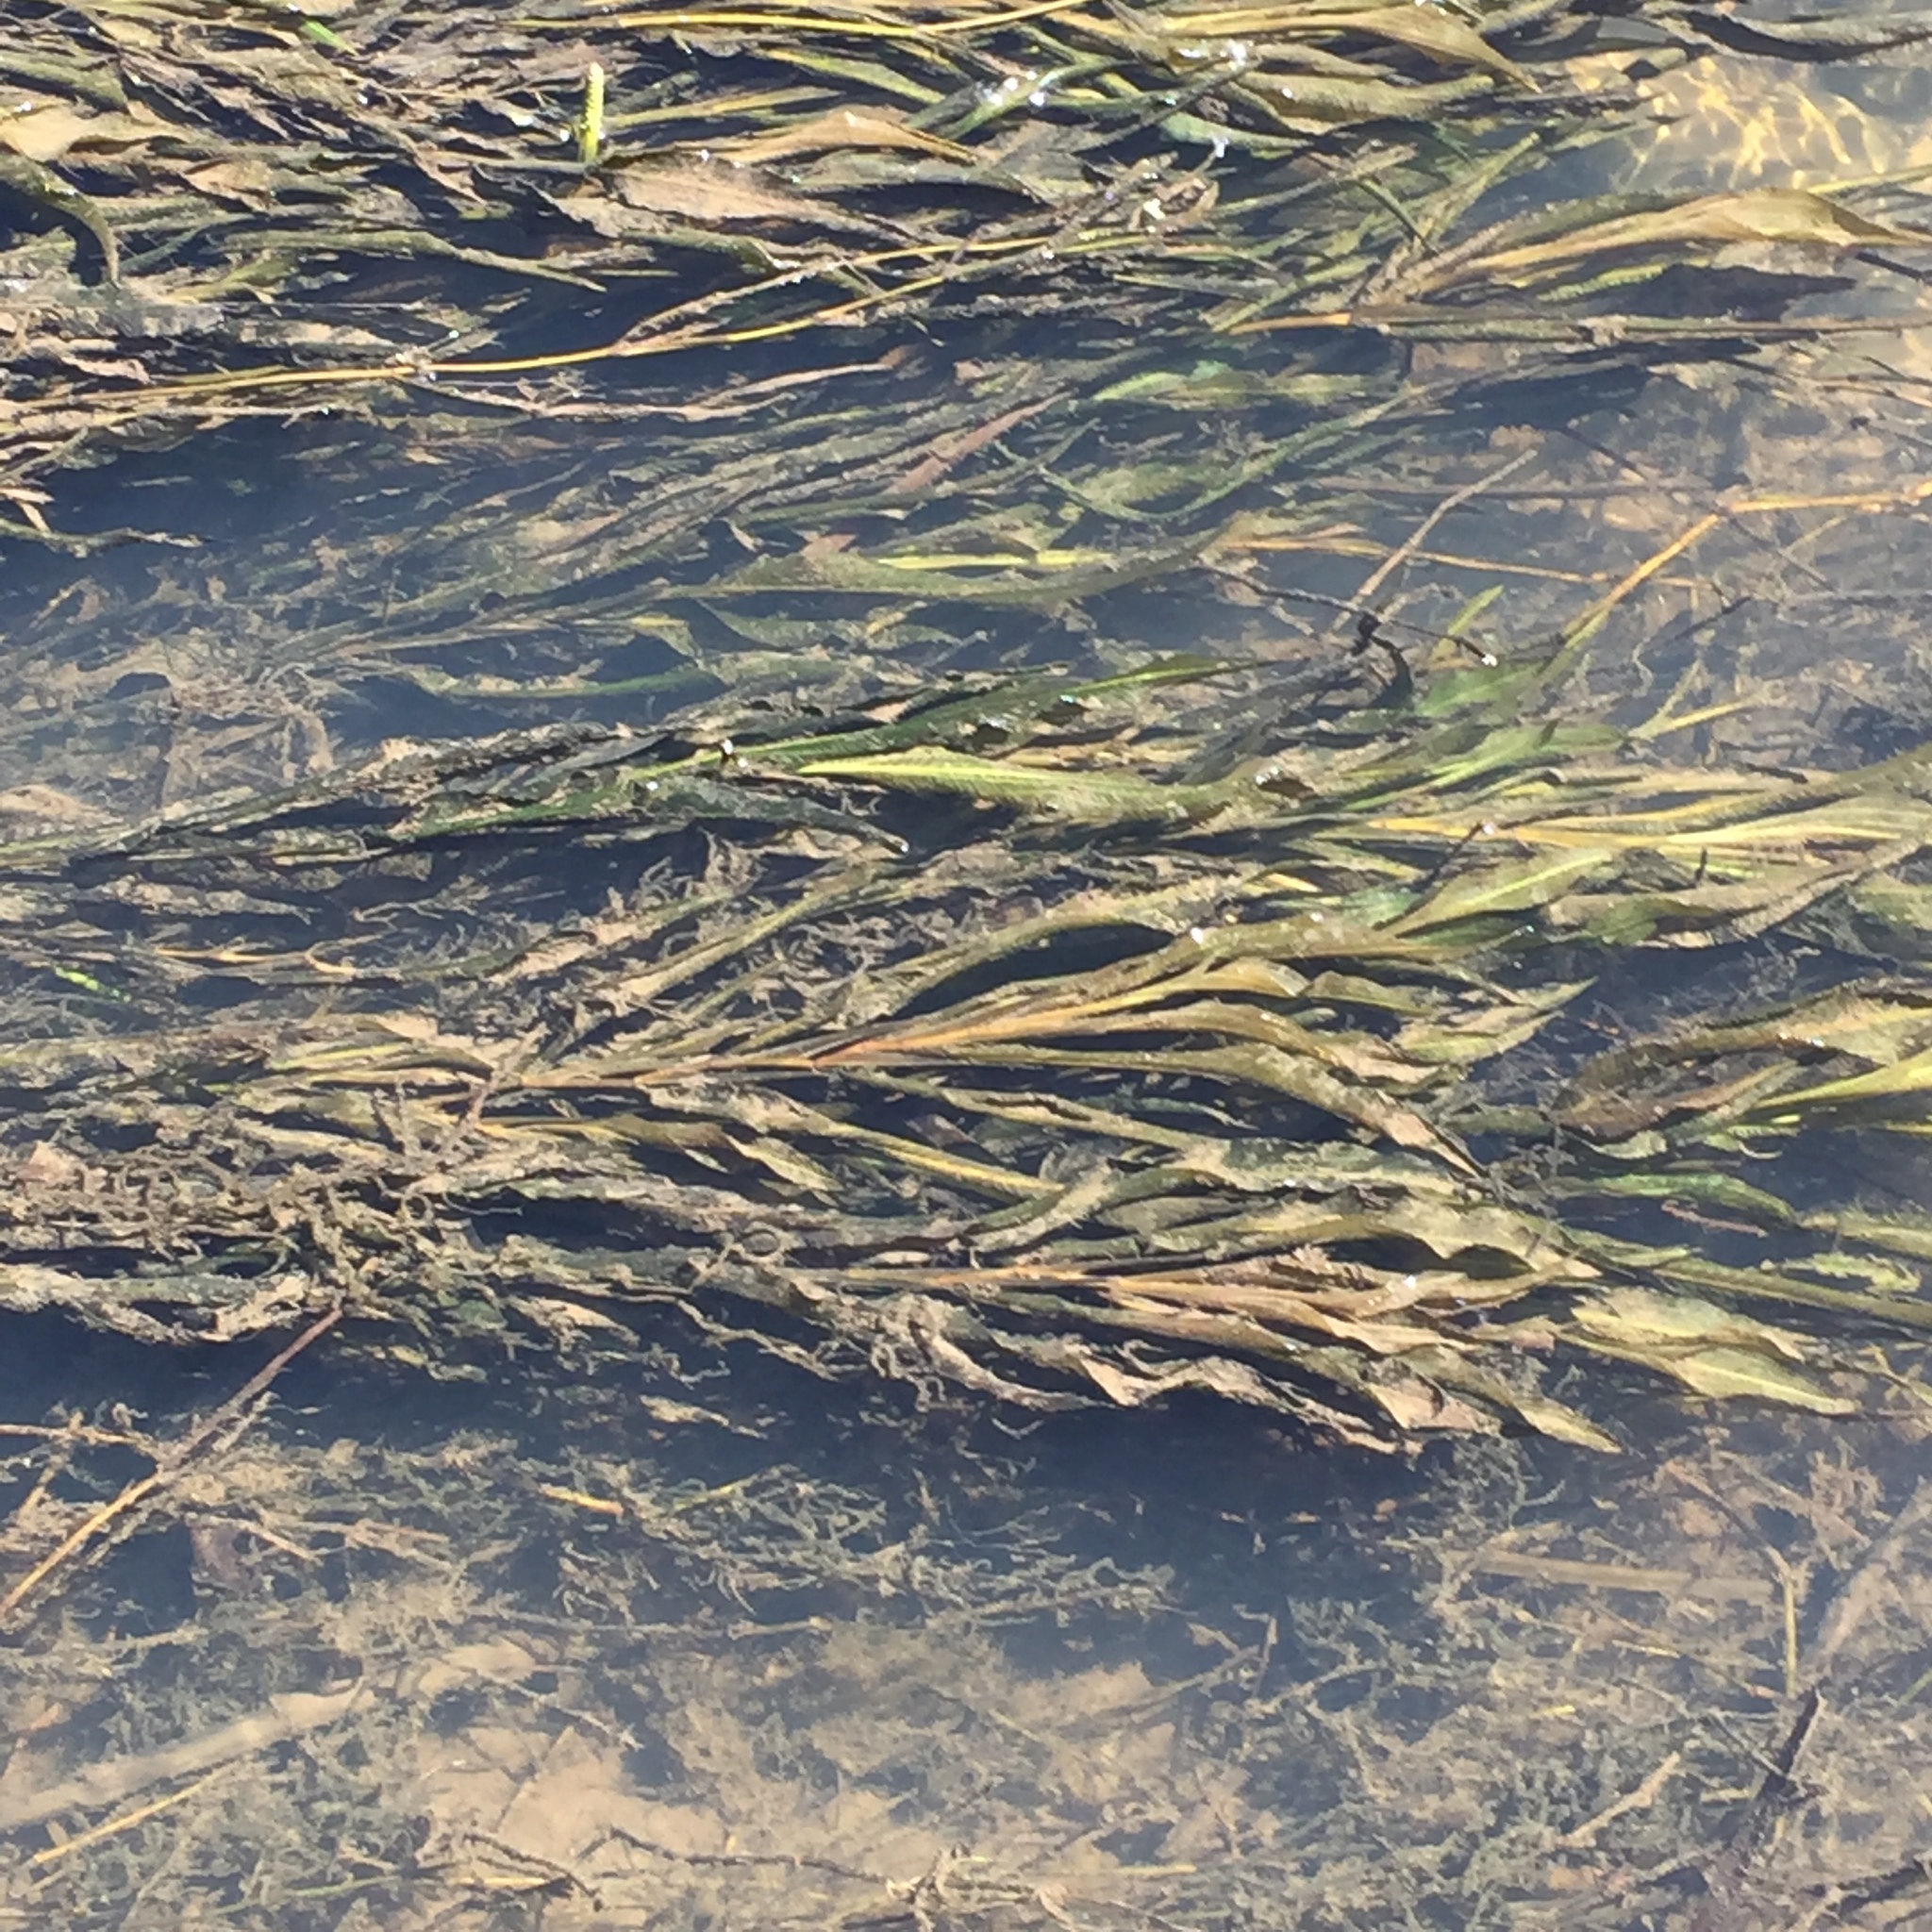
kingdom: Plantae
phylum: Tracheophyta
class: Liliopsida
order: Alismatales
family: Potamogetonaceae
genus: Potamogeton
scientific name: Potamogeton schweinfurthii
